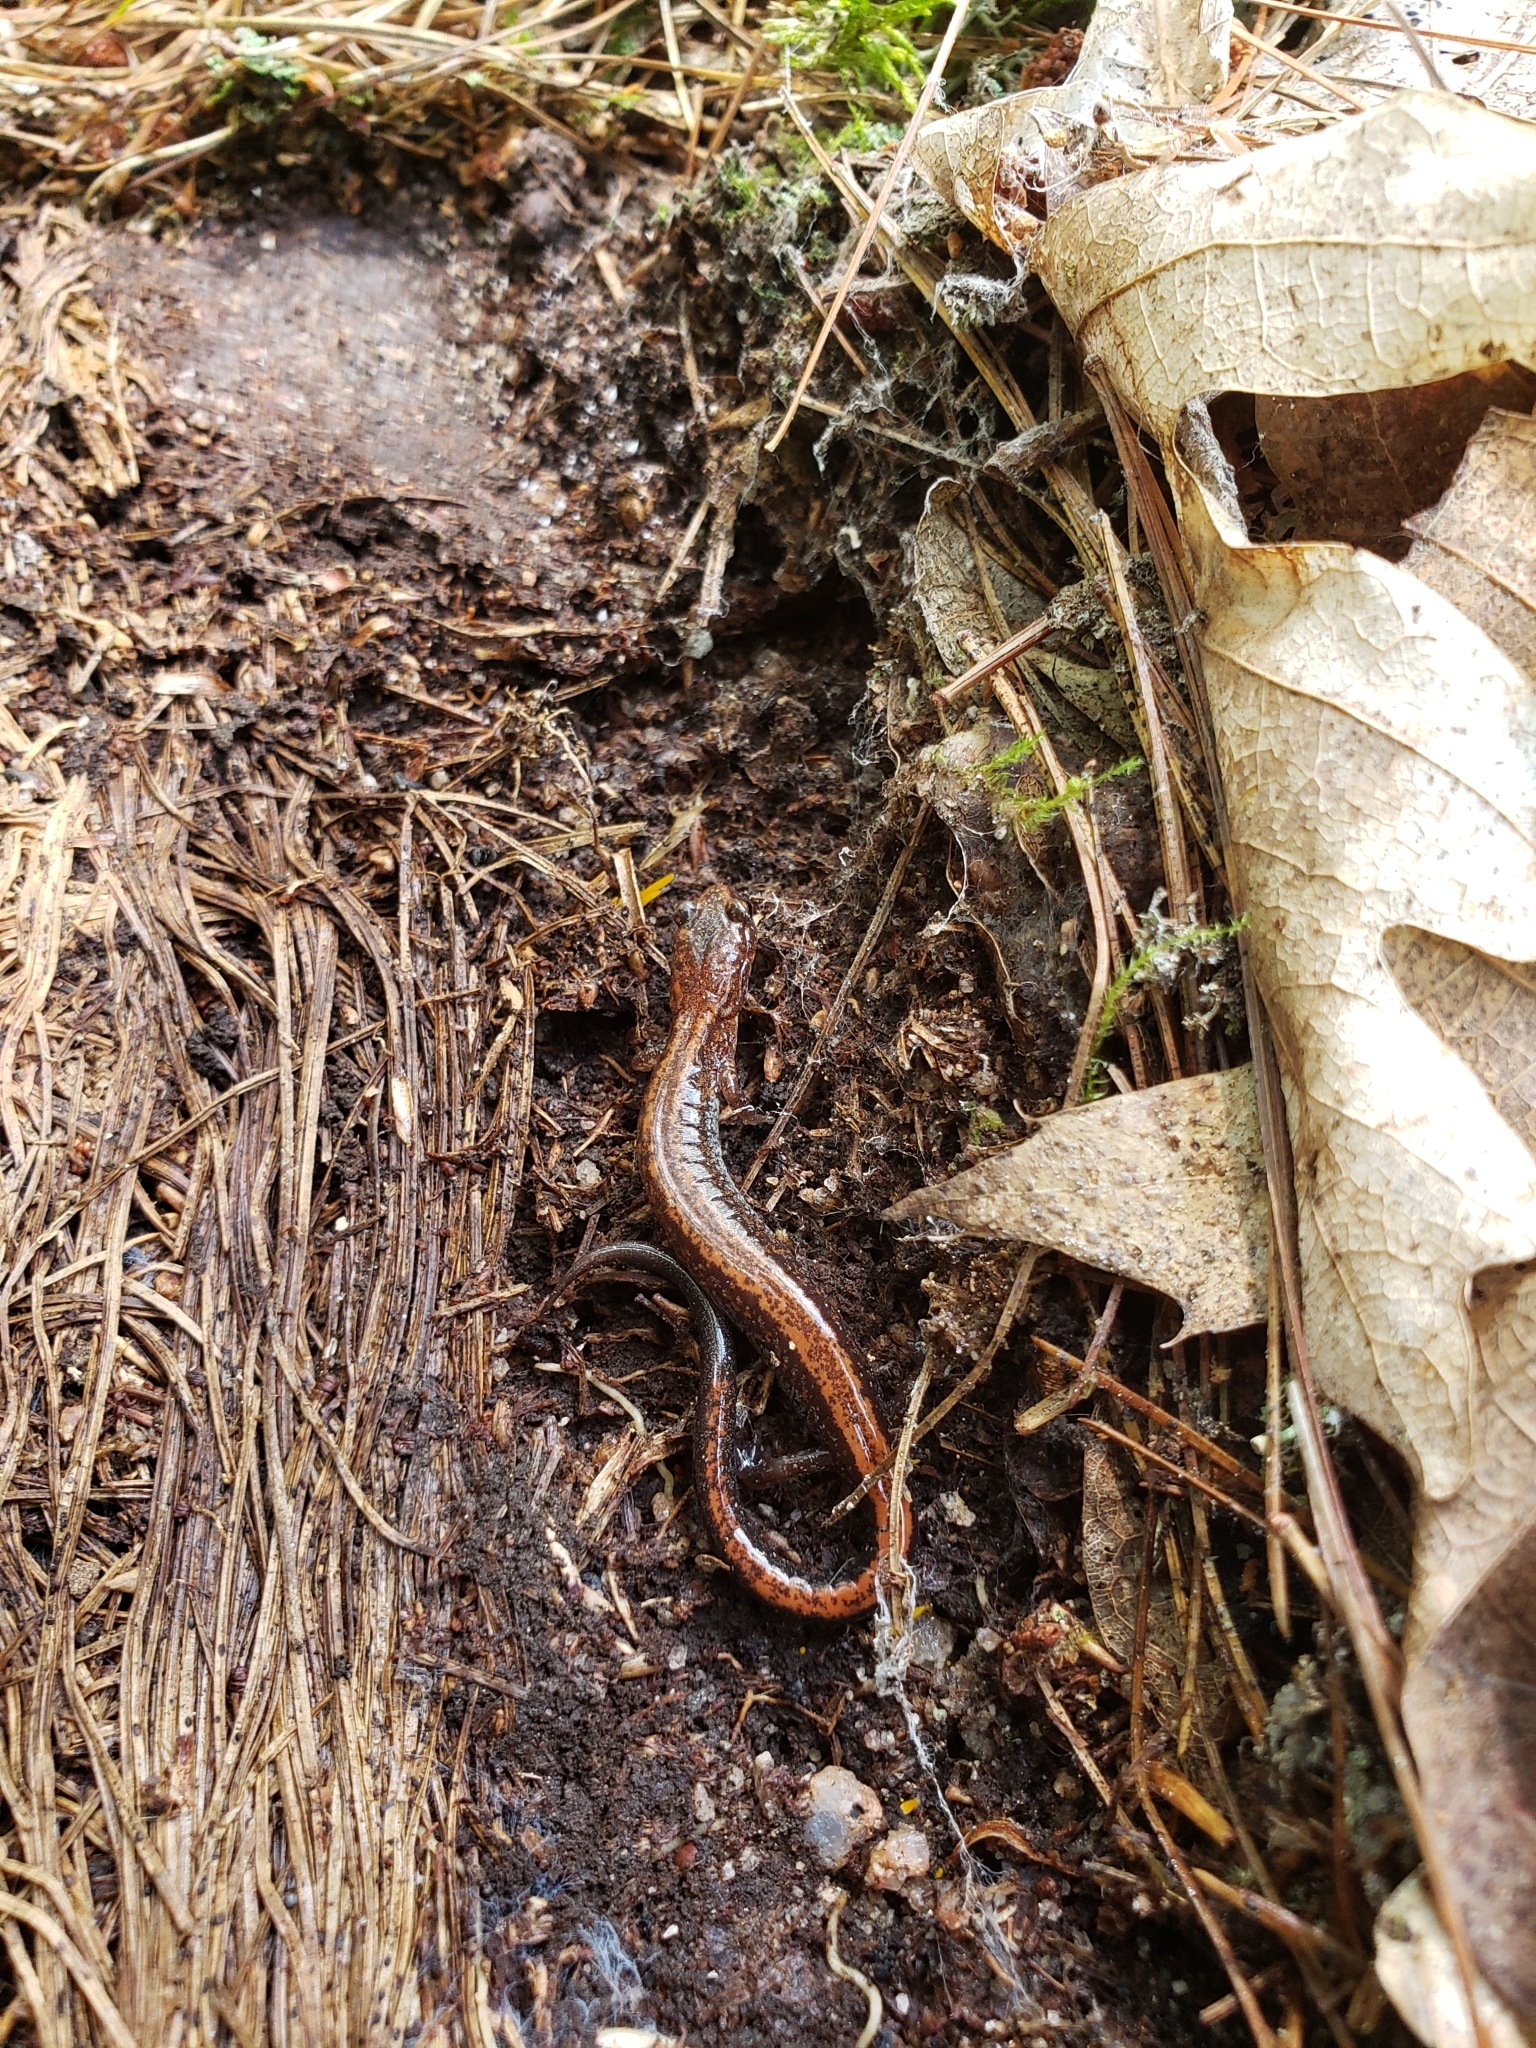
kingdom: Animalia
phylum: Chordata
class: Amphibia
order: Caudata
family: Plethodontidae
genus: Plethodon
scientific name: Plethodon cinereus
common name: Redback salamander
